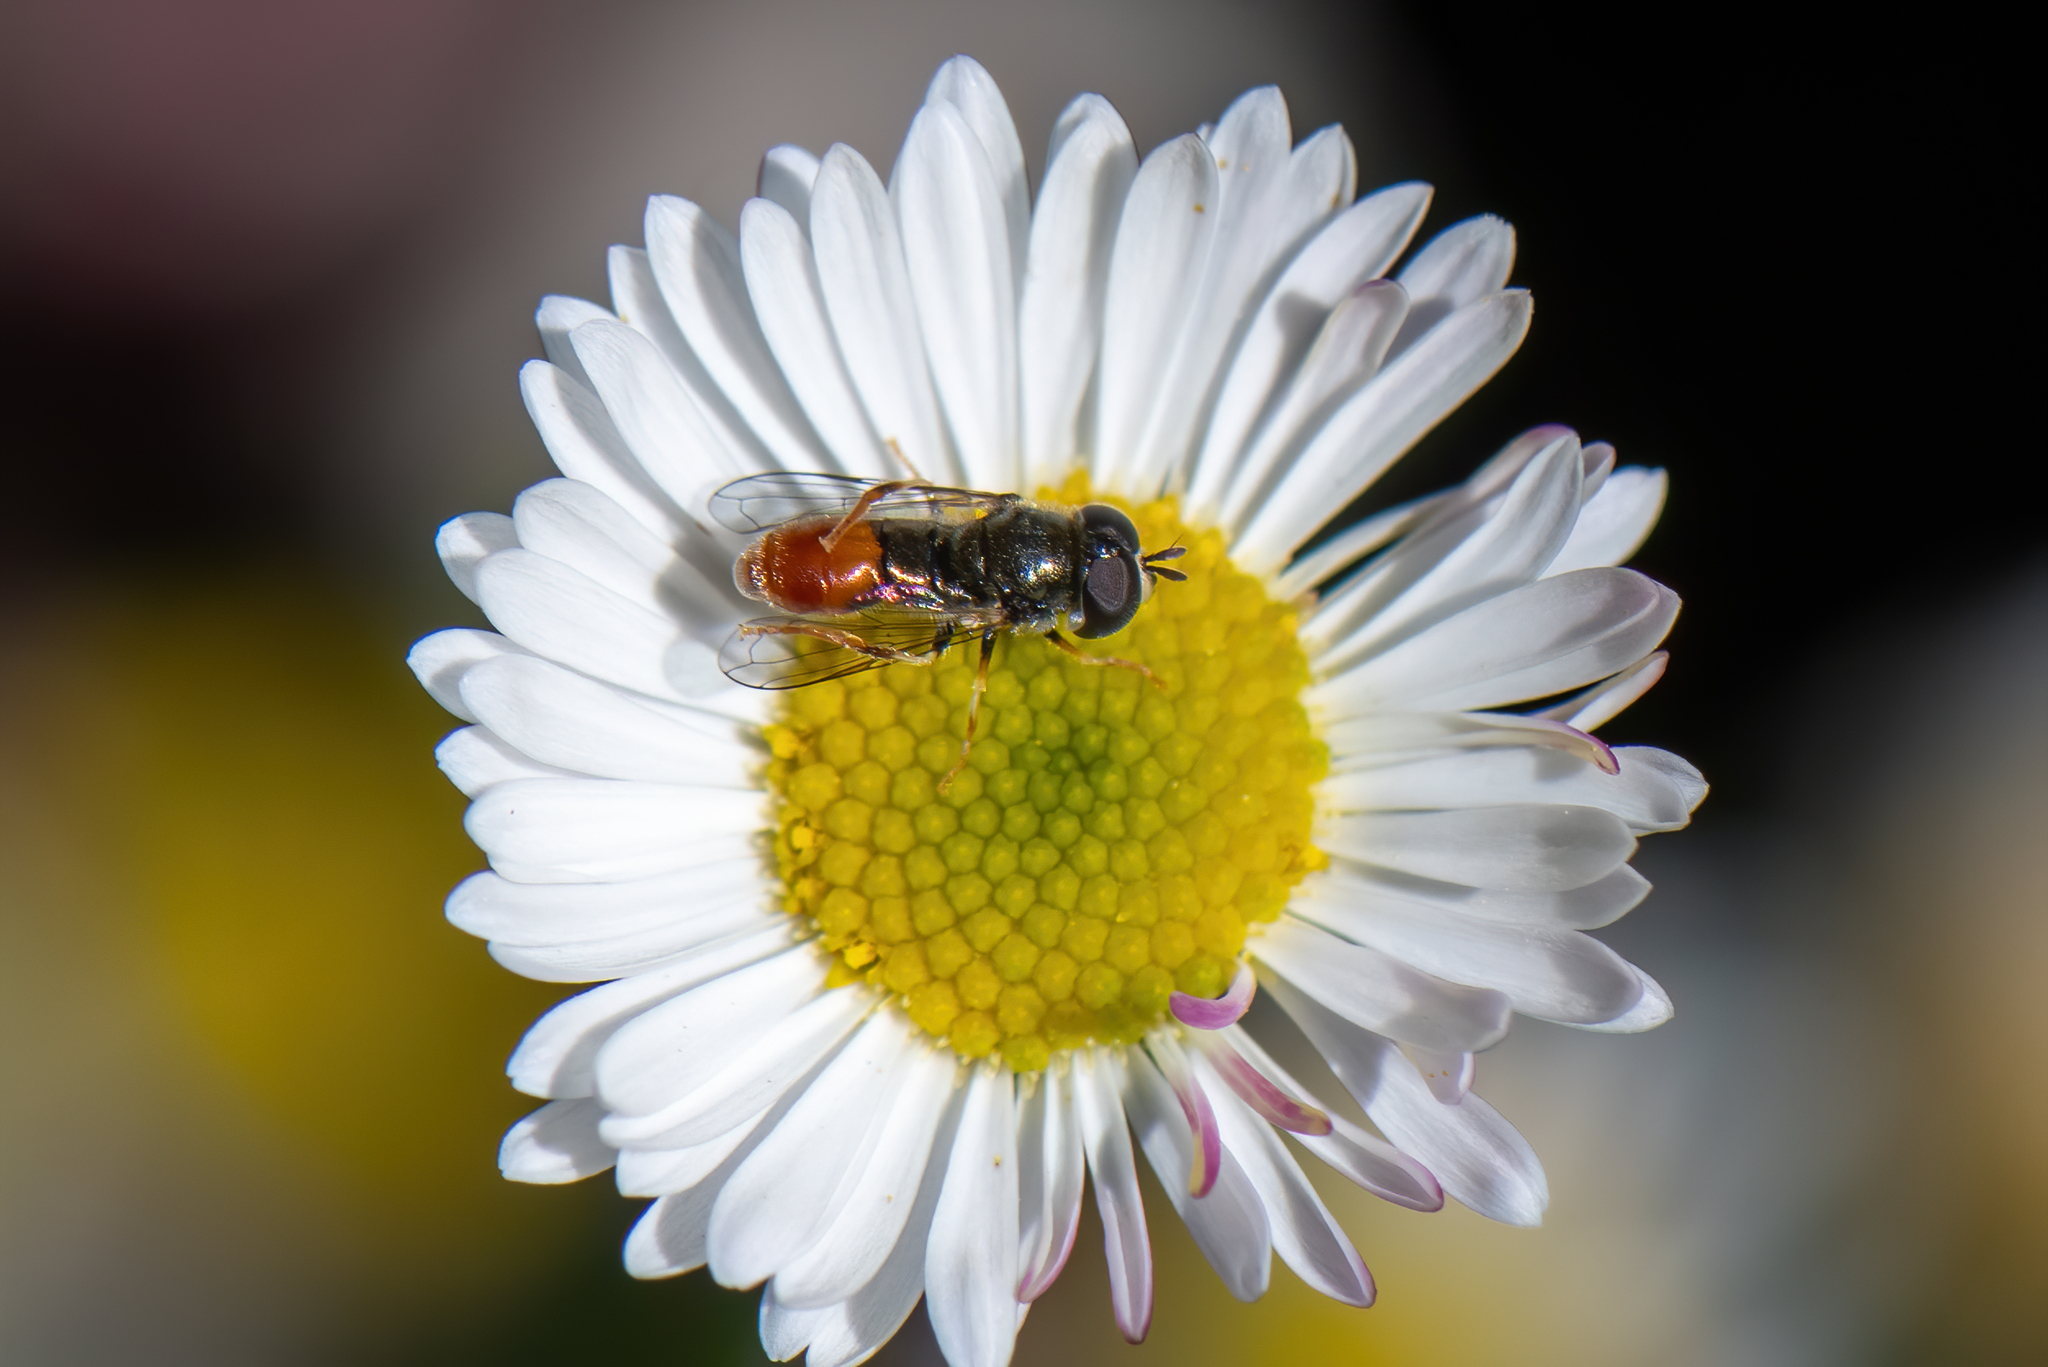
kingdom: Animalia
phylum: Arthropoda
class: Insecta
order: Diptera
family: Syrphidae
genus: Paragus
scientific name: Paragus haemorrhous
